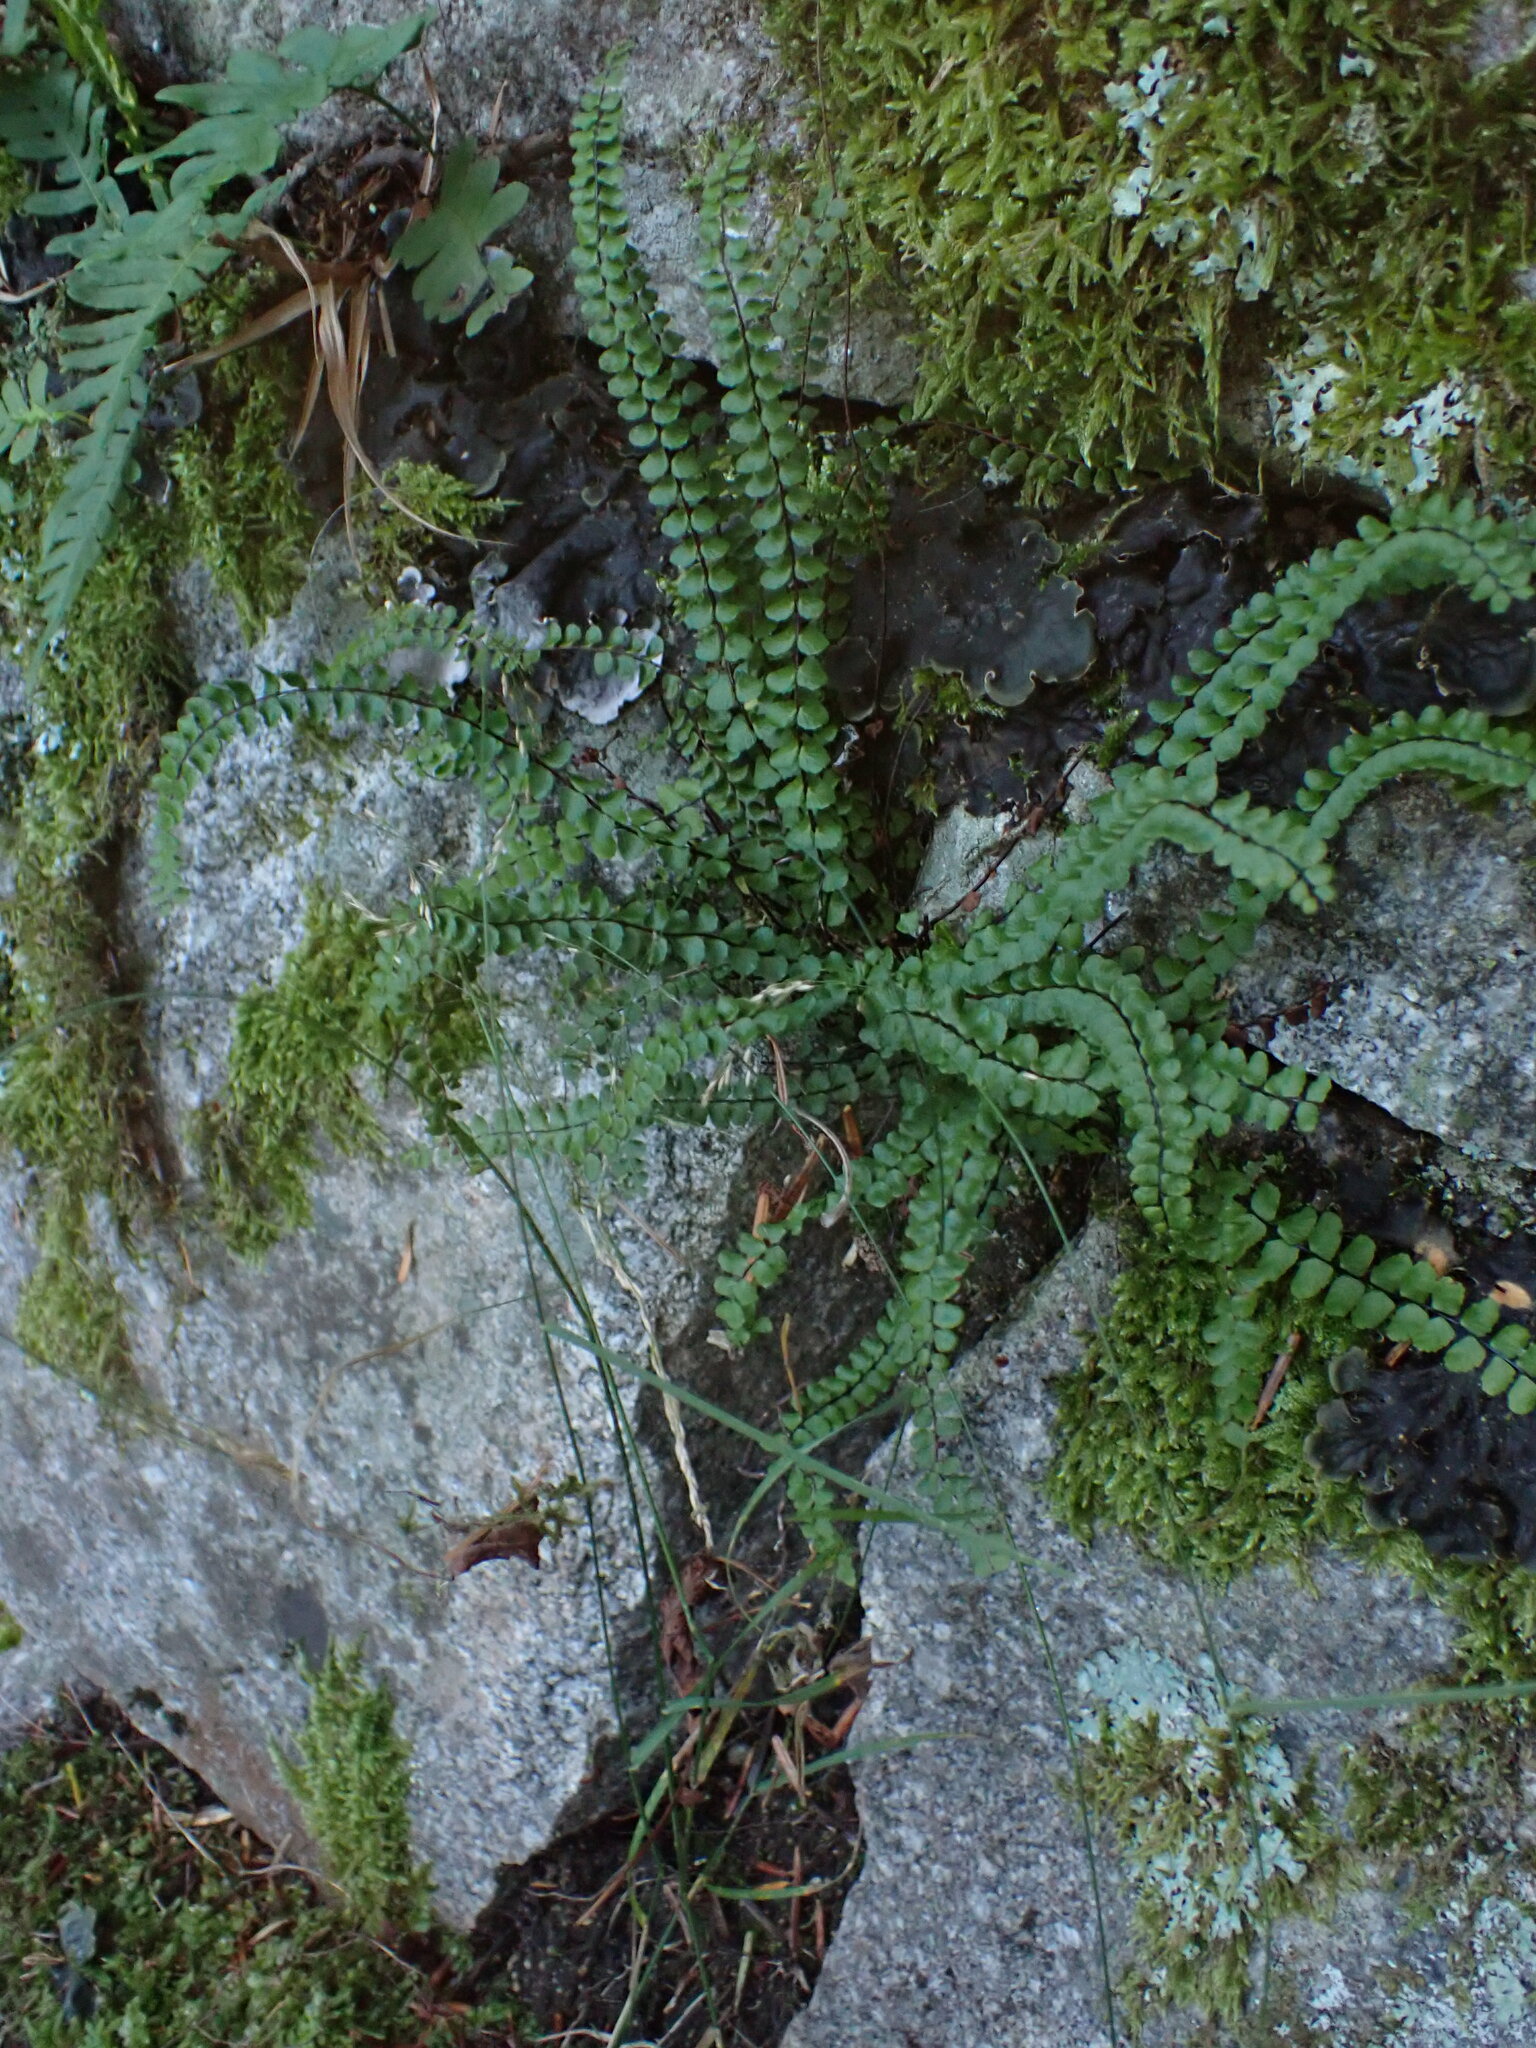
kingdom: Plantae
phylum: Tracheophyta
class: Polypodiopsida
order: Polypodiales
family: Aspleniaceae
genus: Asplenium
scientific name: Asplenium trichomanes
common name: Maidenhair spleenwort
